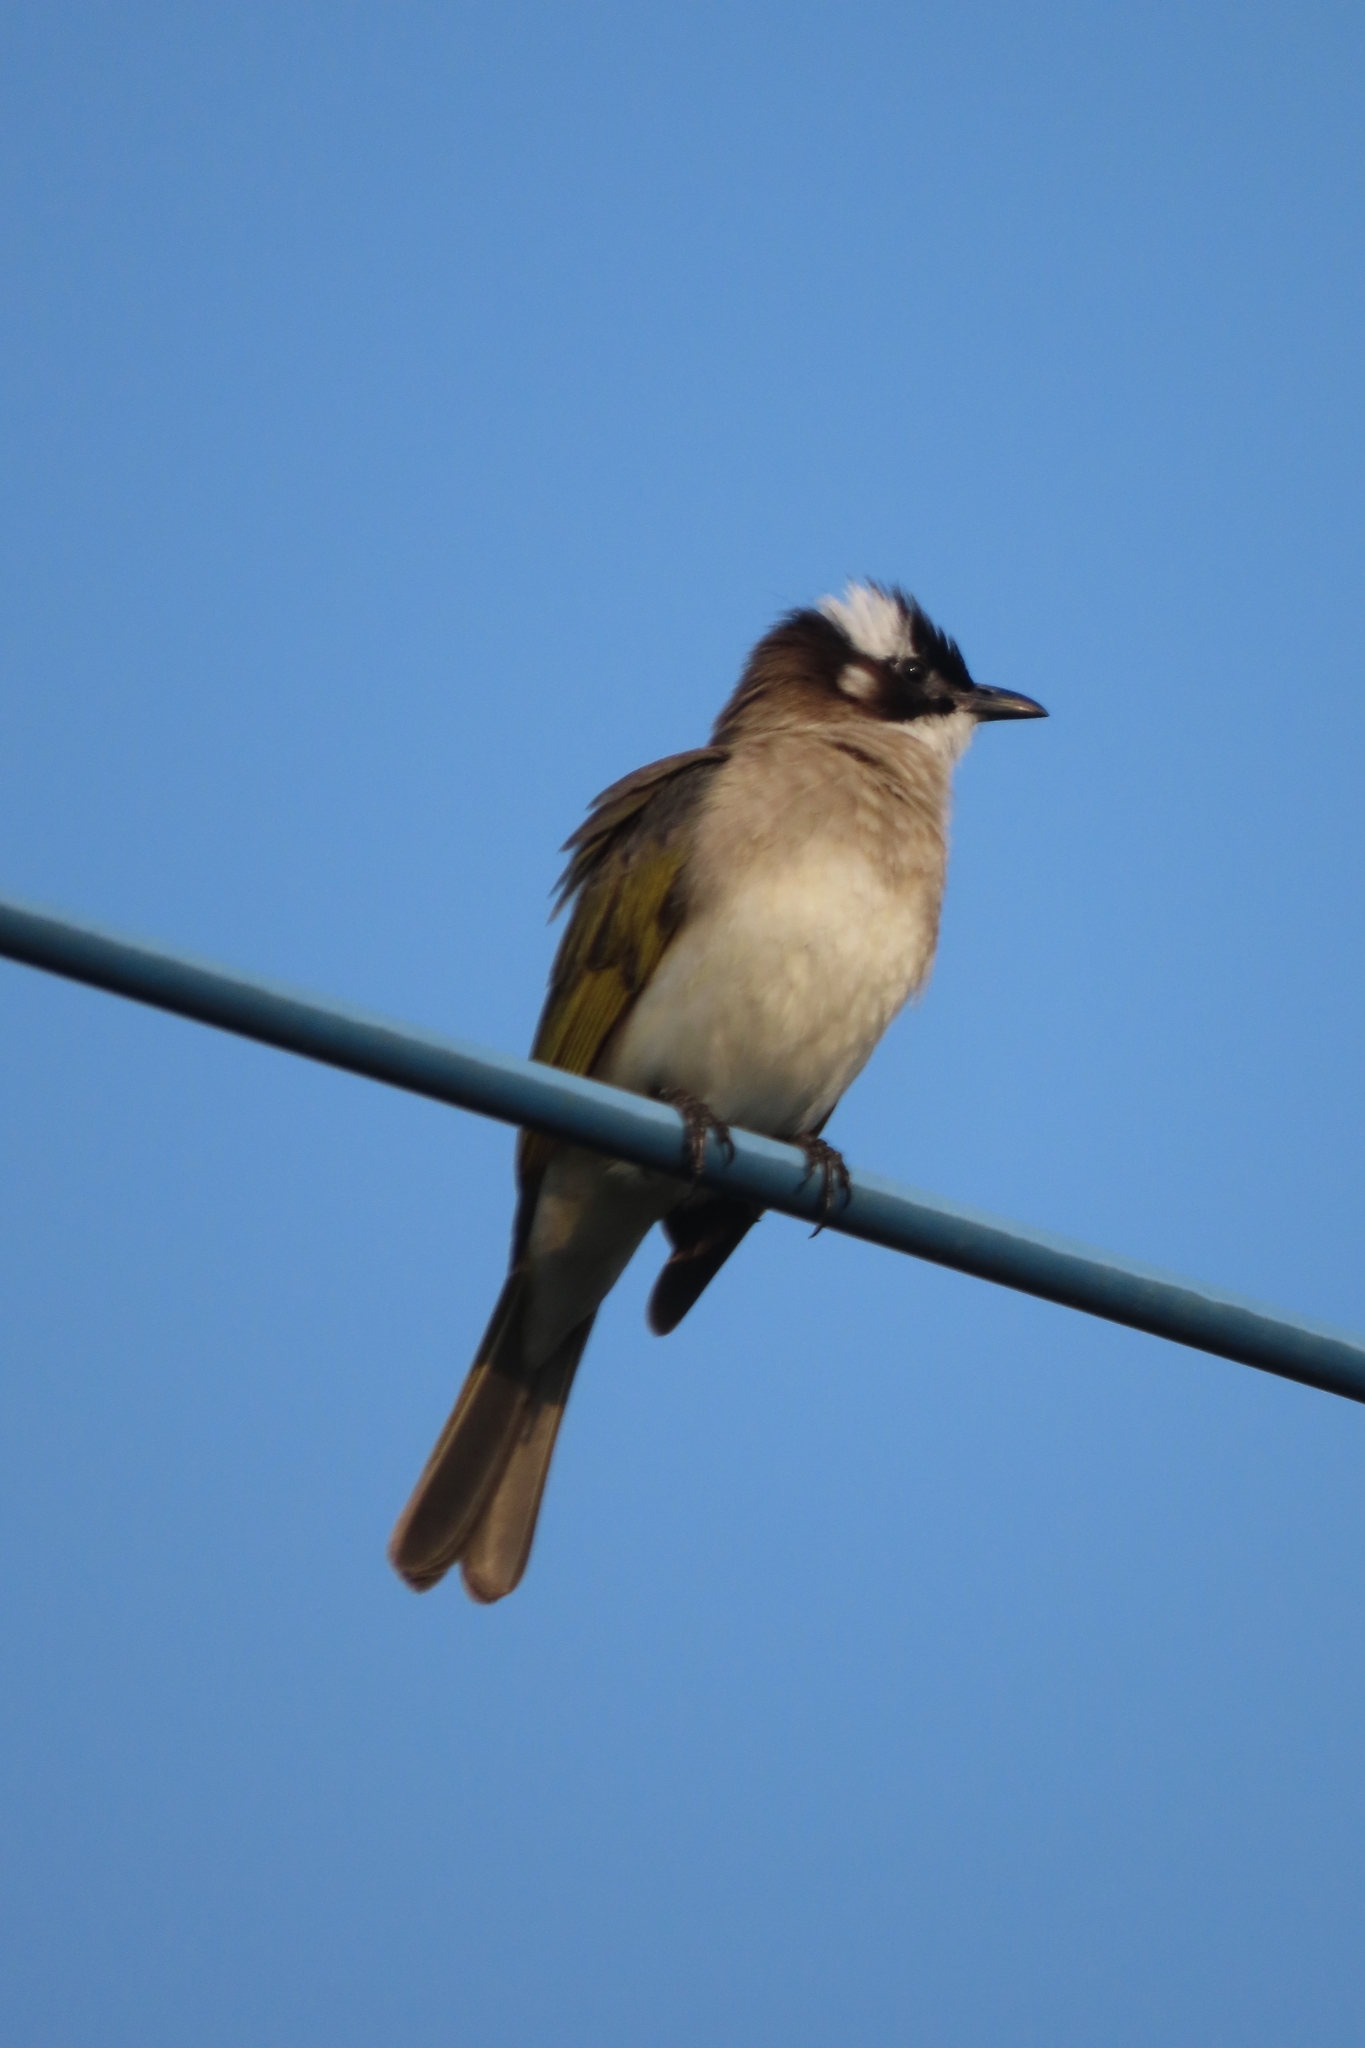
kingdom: Animalia
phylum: Chordata
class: Aves
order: Passeriformes
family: Pycnonotidae
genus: Pycnonotus
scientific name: Pycnonotus sinensis
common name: Light-vented bulbul
